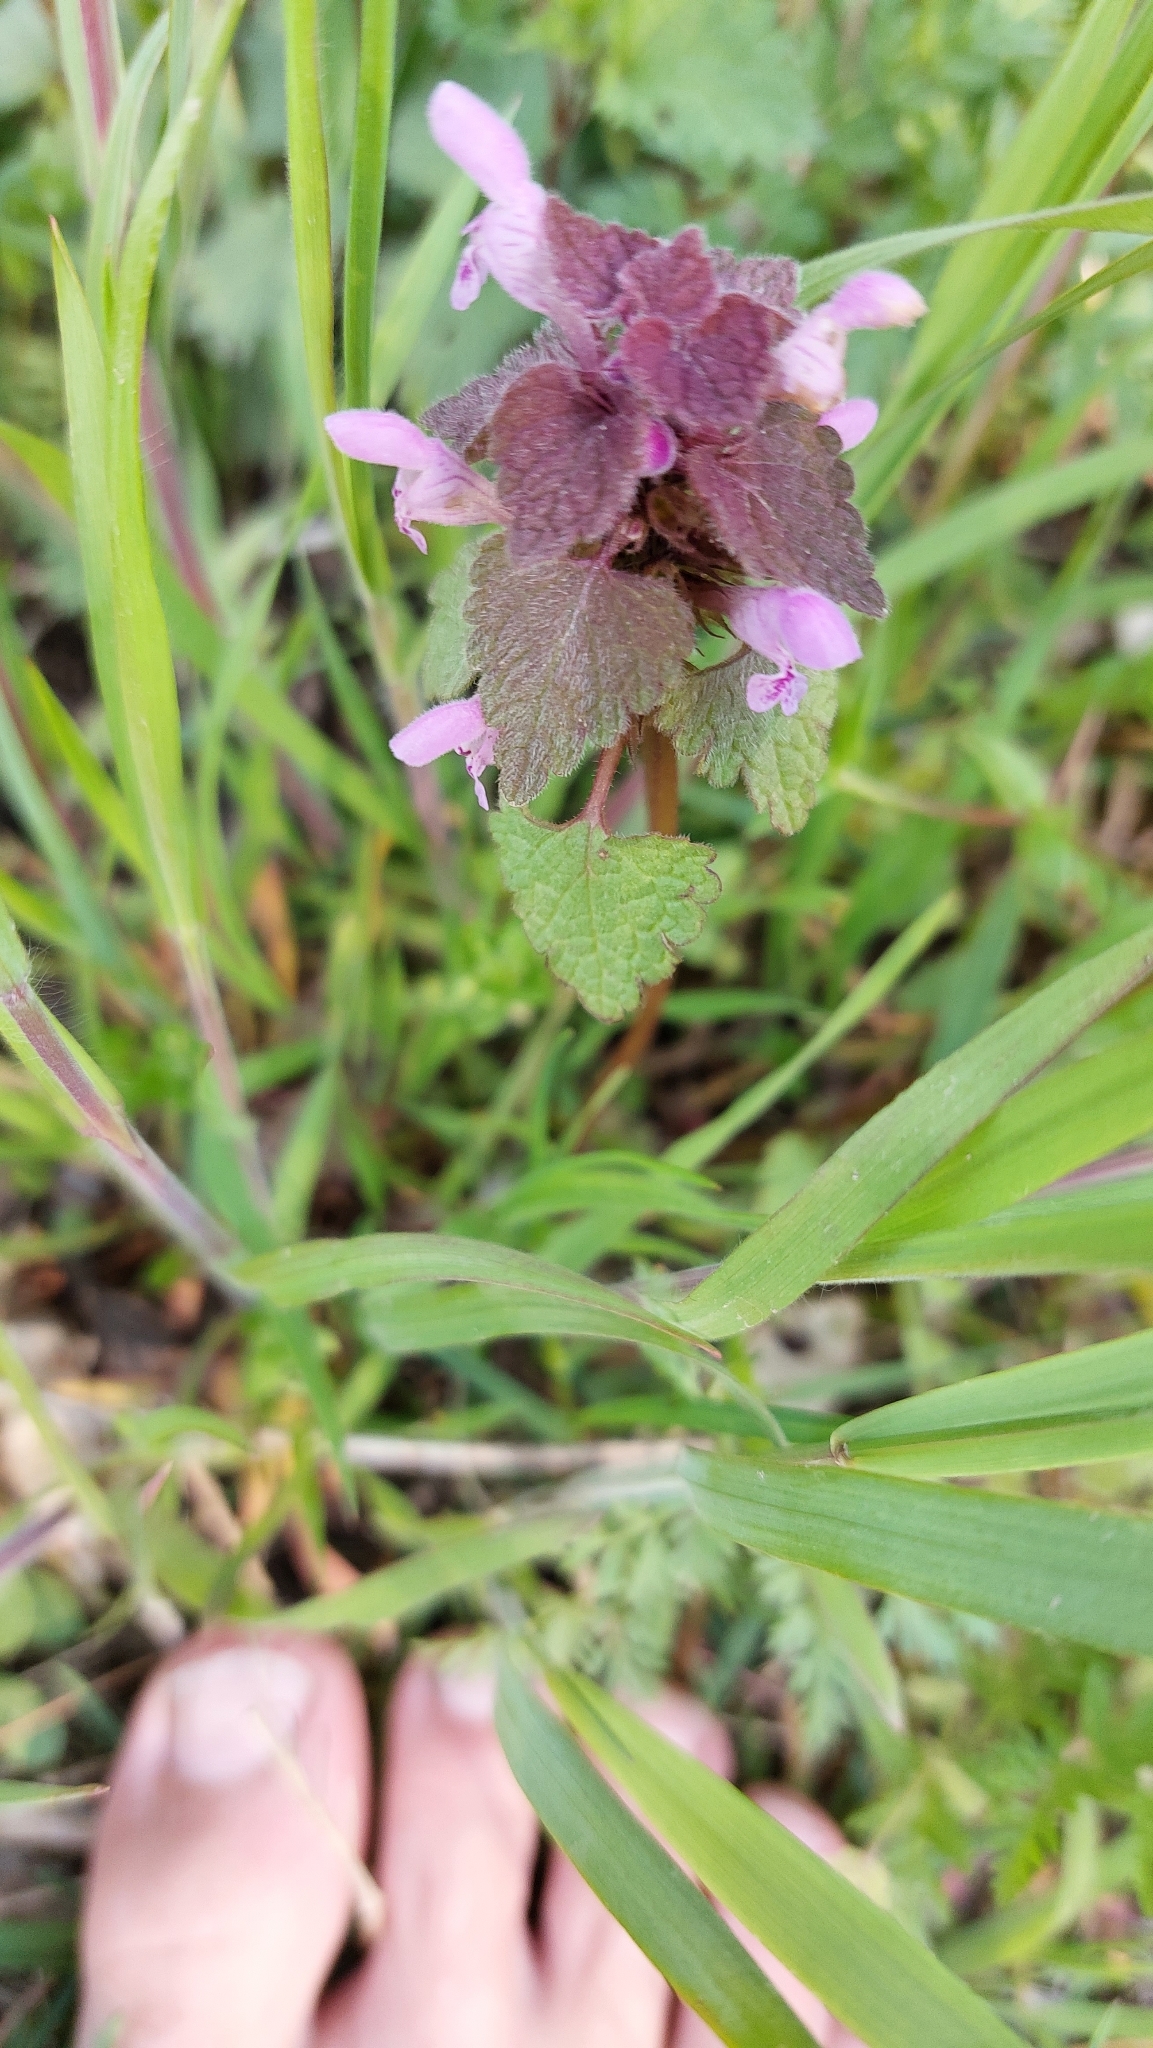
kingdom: Plantae
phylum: Tracheophyta
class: Magnoliopsida
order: Lamiales
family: Lamiaceae
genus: Lamium
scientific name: Lamium purpureum
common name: Red dead-nettle
